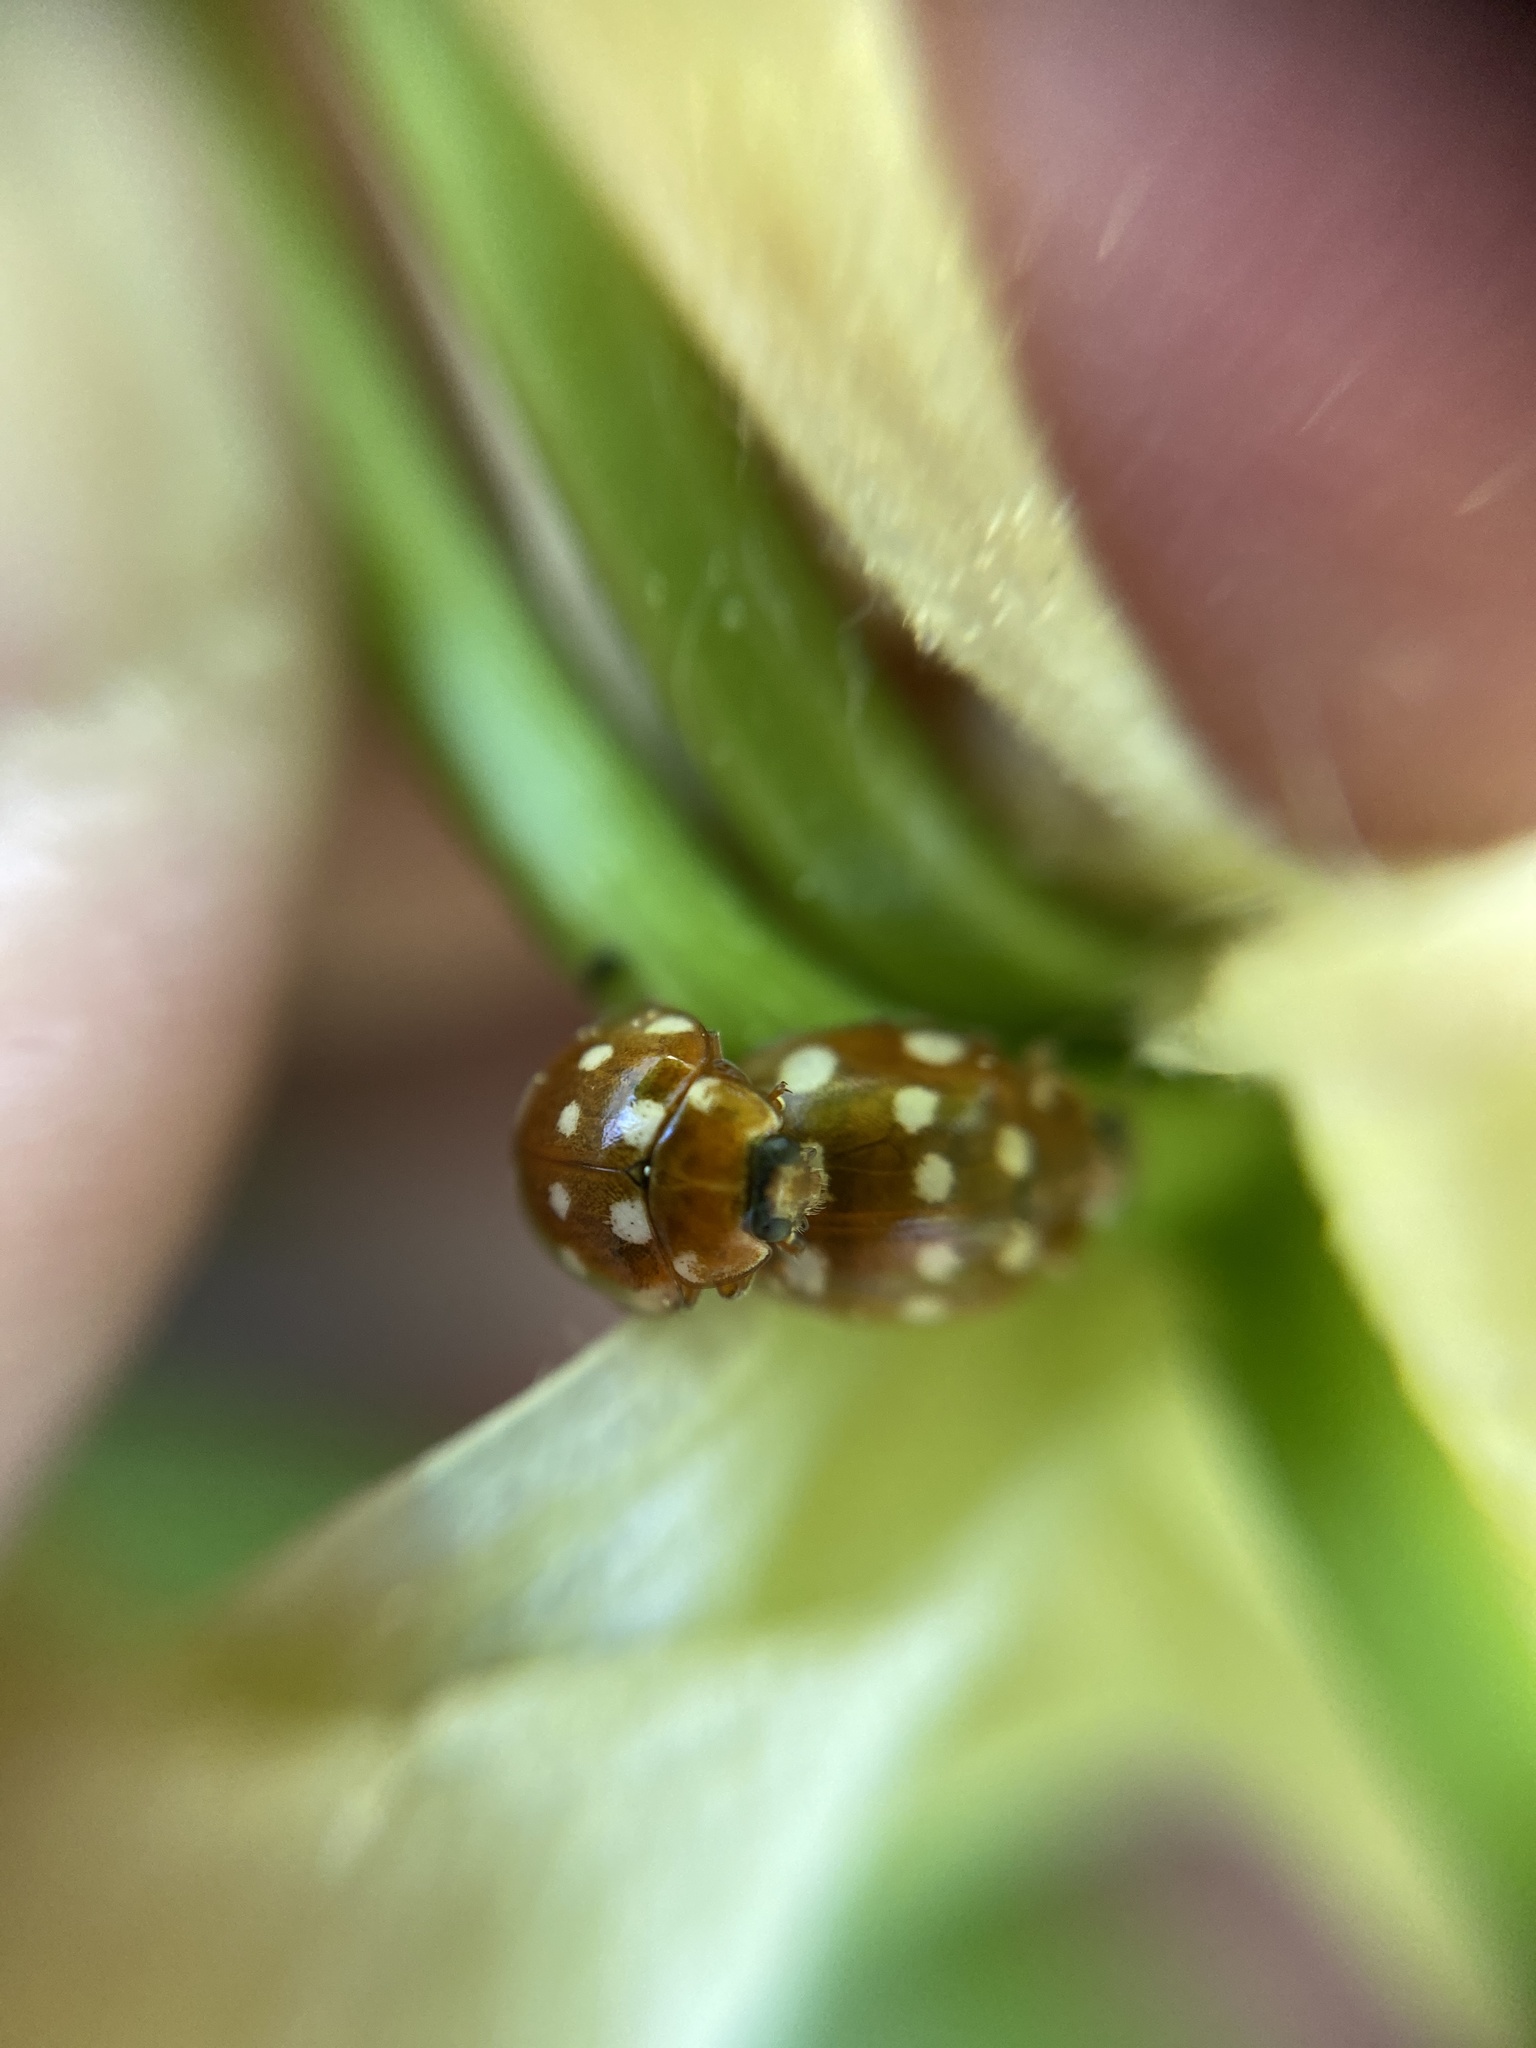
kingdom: Animalia
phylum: Arthropoda
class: Insecta
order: Coleoptera
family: Coccinellidae
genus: Calvia
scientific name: Calvia quatuordecimguttata
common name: Cream-spot ladybird
